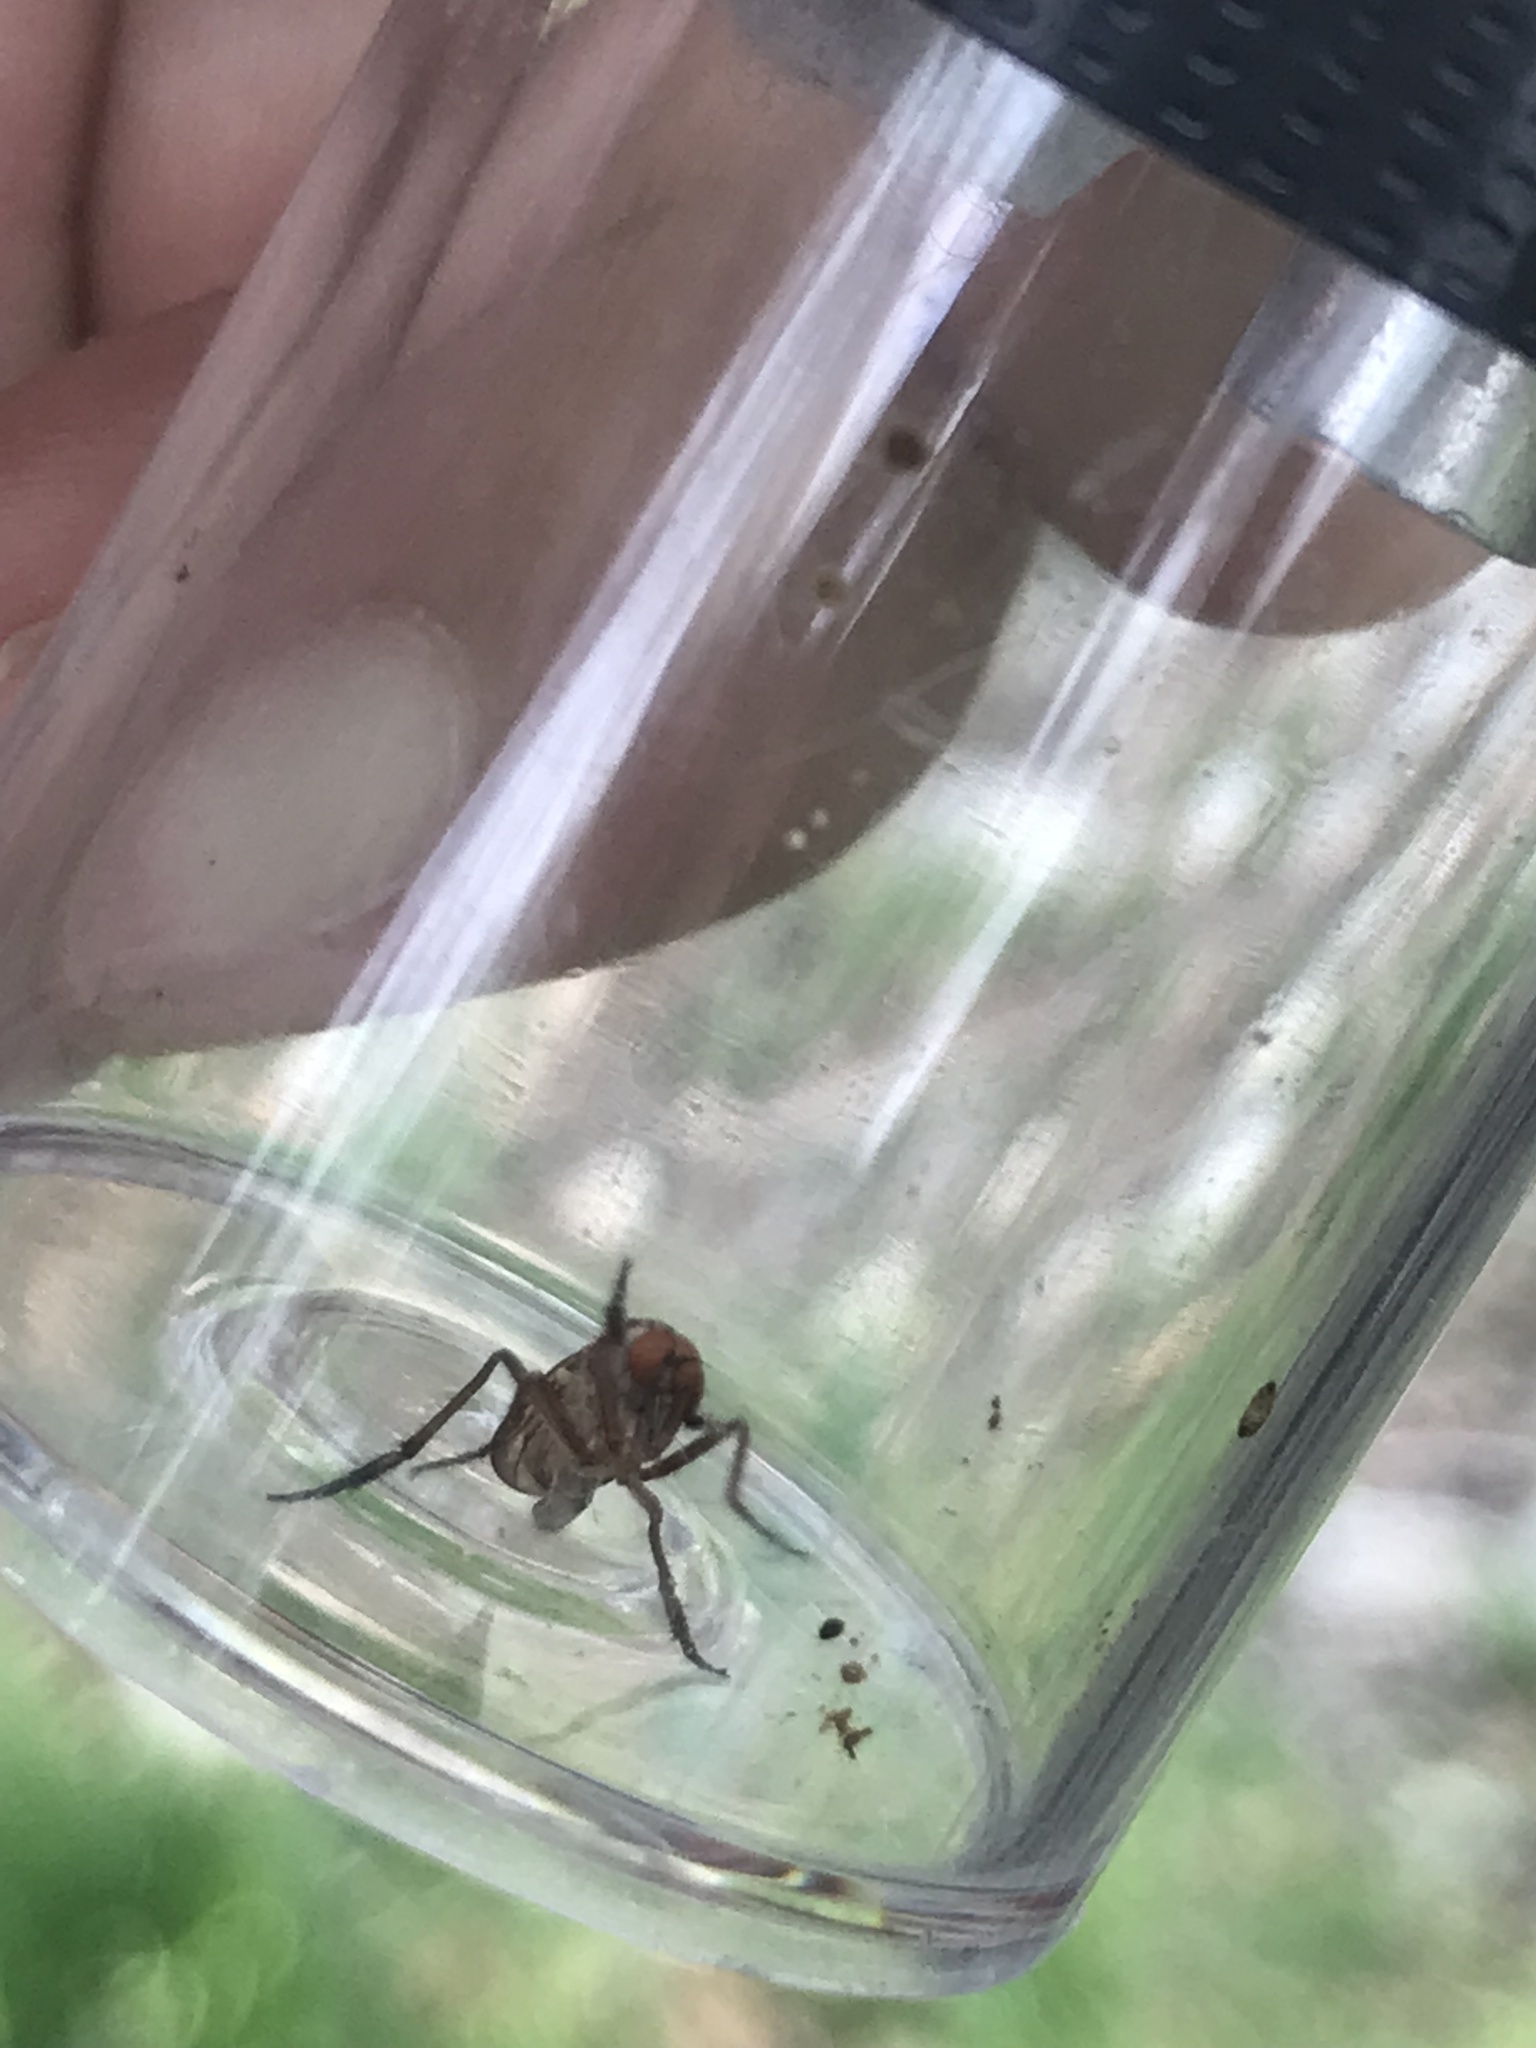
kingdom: Animalia
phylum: Arthropoda
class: Insecta
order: Diptera
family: Empididae
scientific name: Empididae
